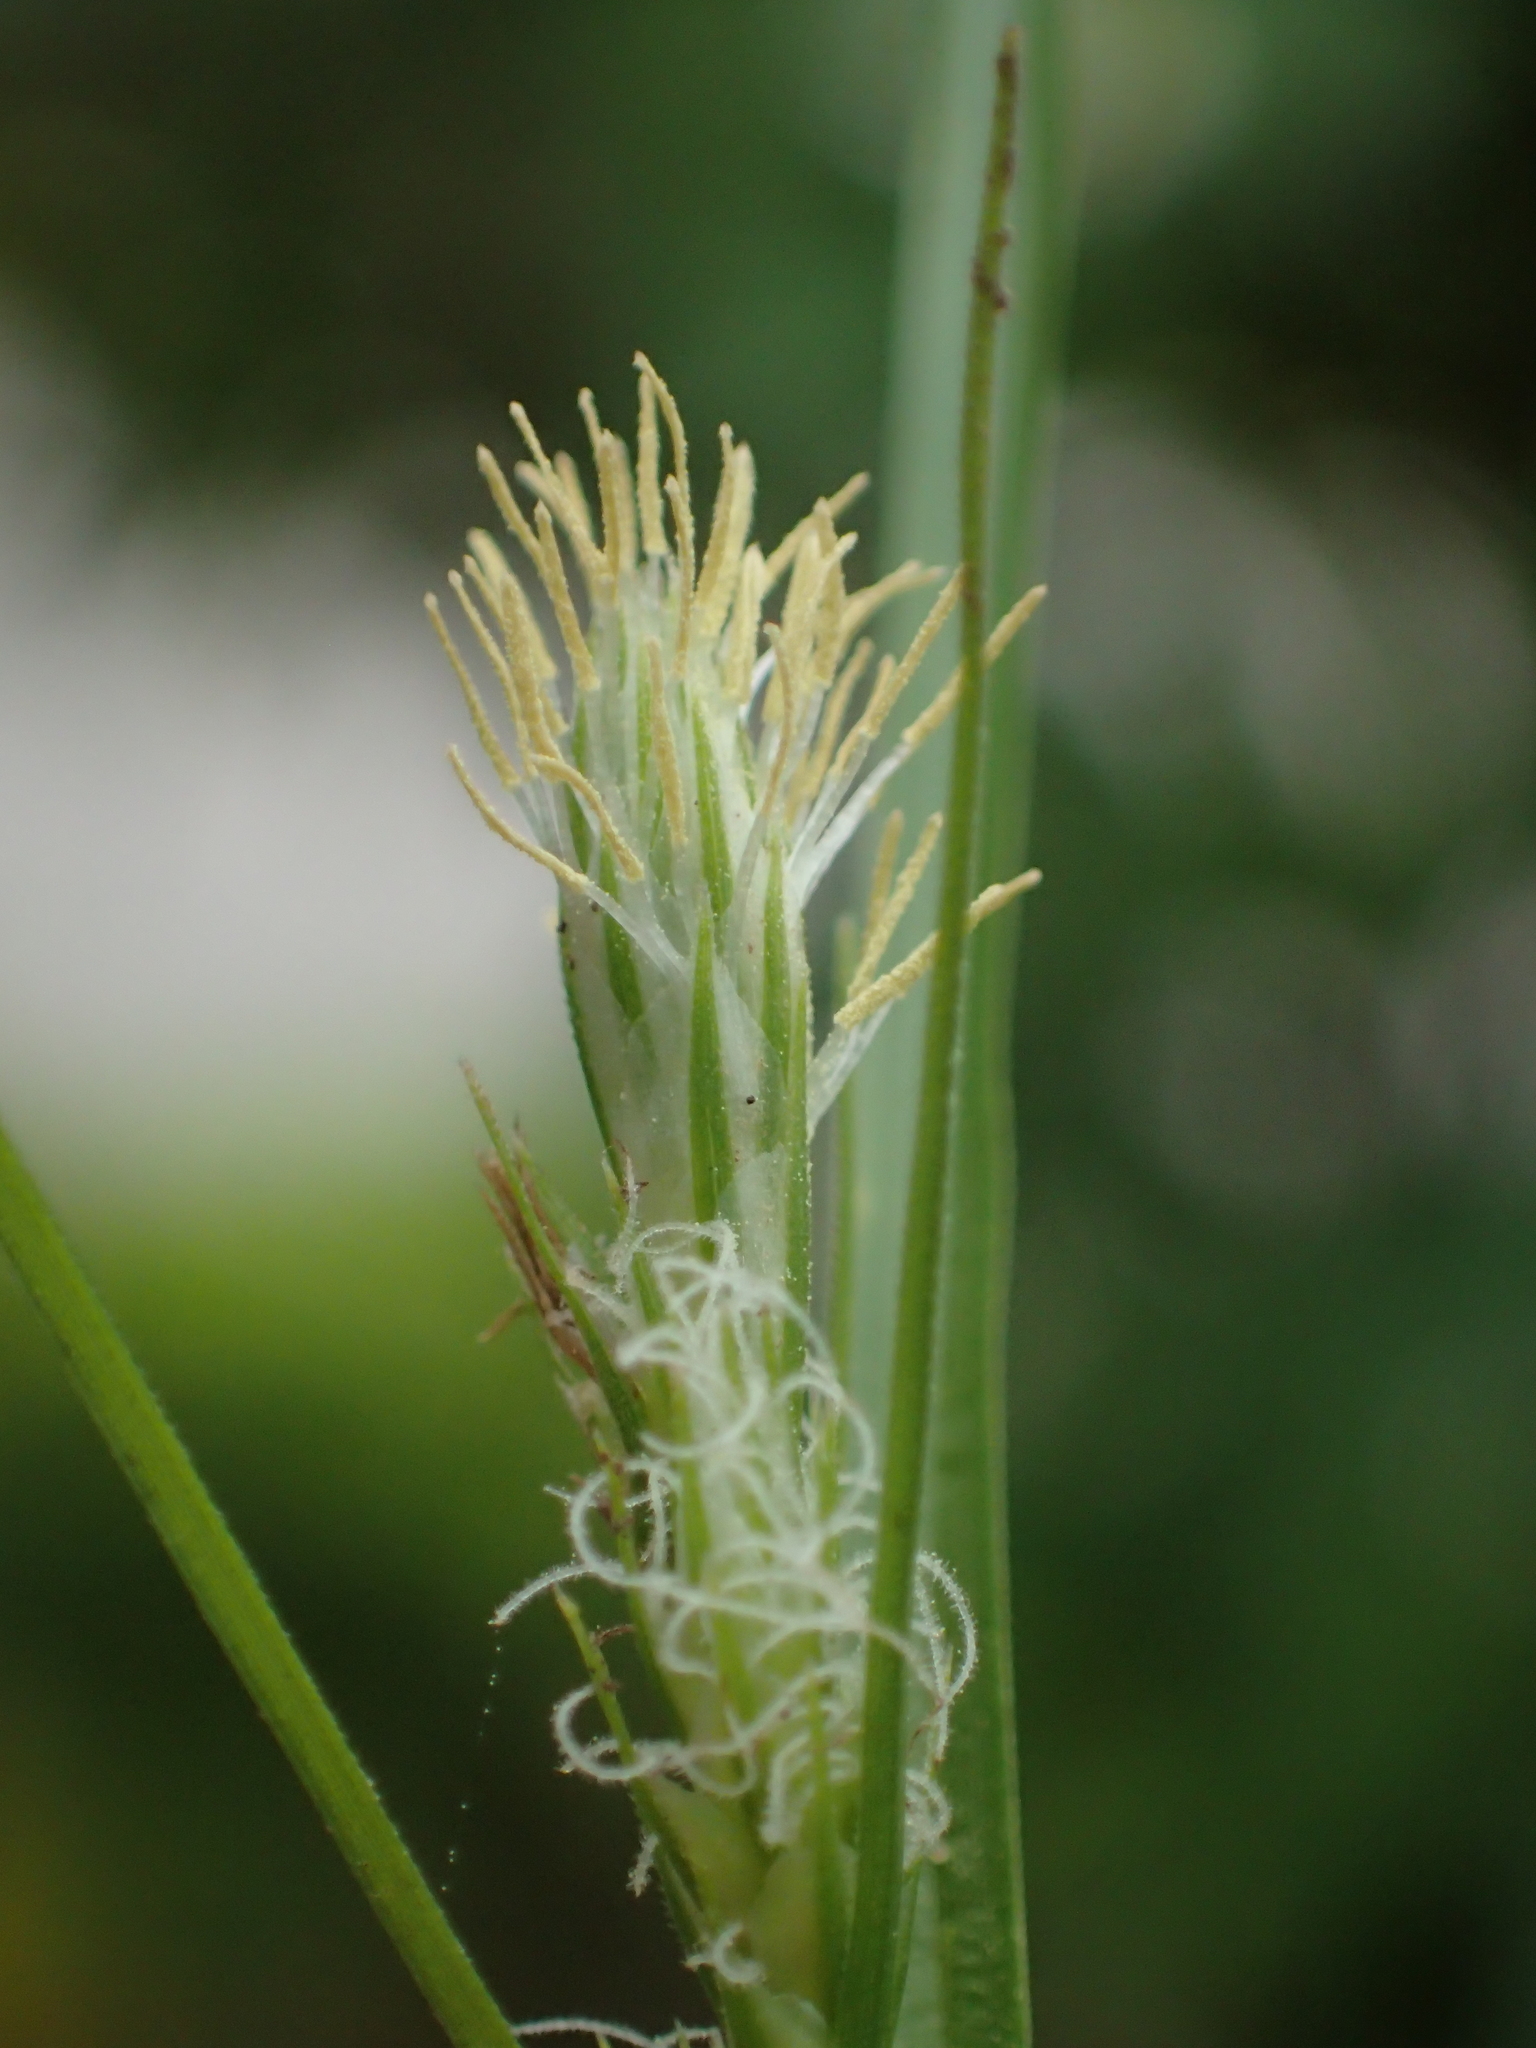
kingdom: Plantae
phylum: Tracheophyta
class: Liliopsida
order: Poales
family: Cyperaceae
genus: Carex
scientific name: Carex breviculmis
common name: Asian shortstem sedge
